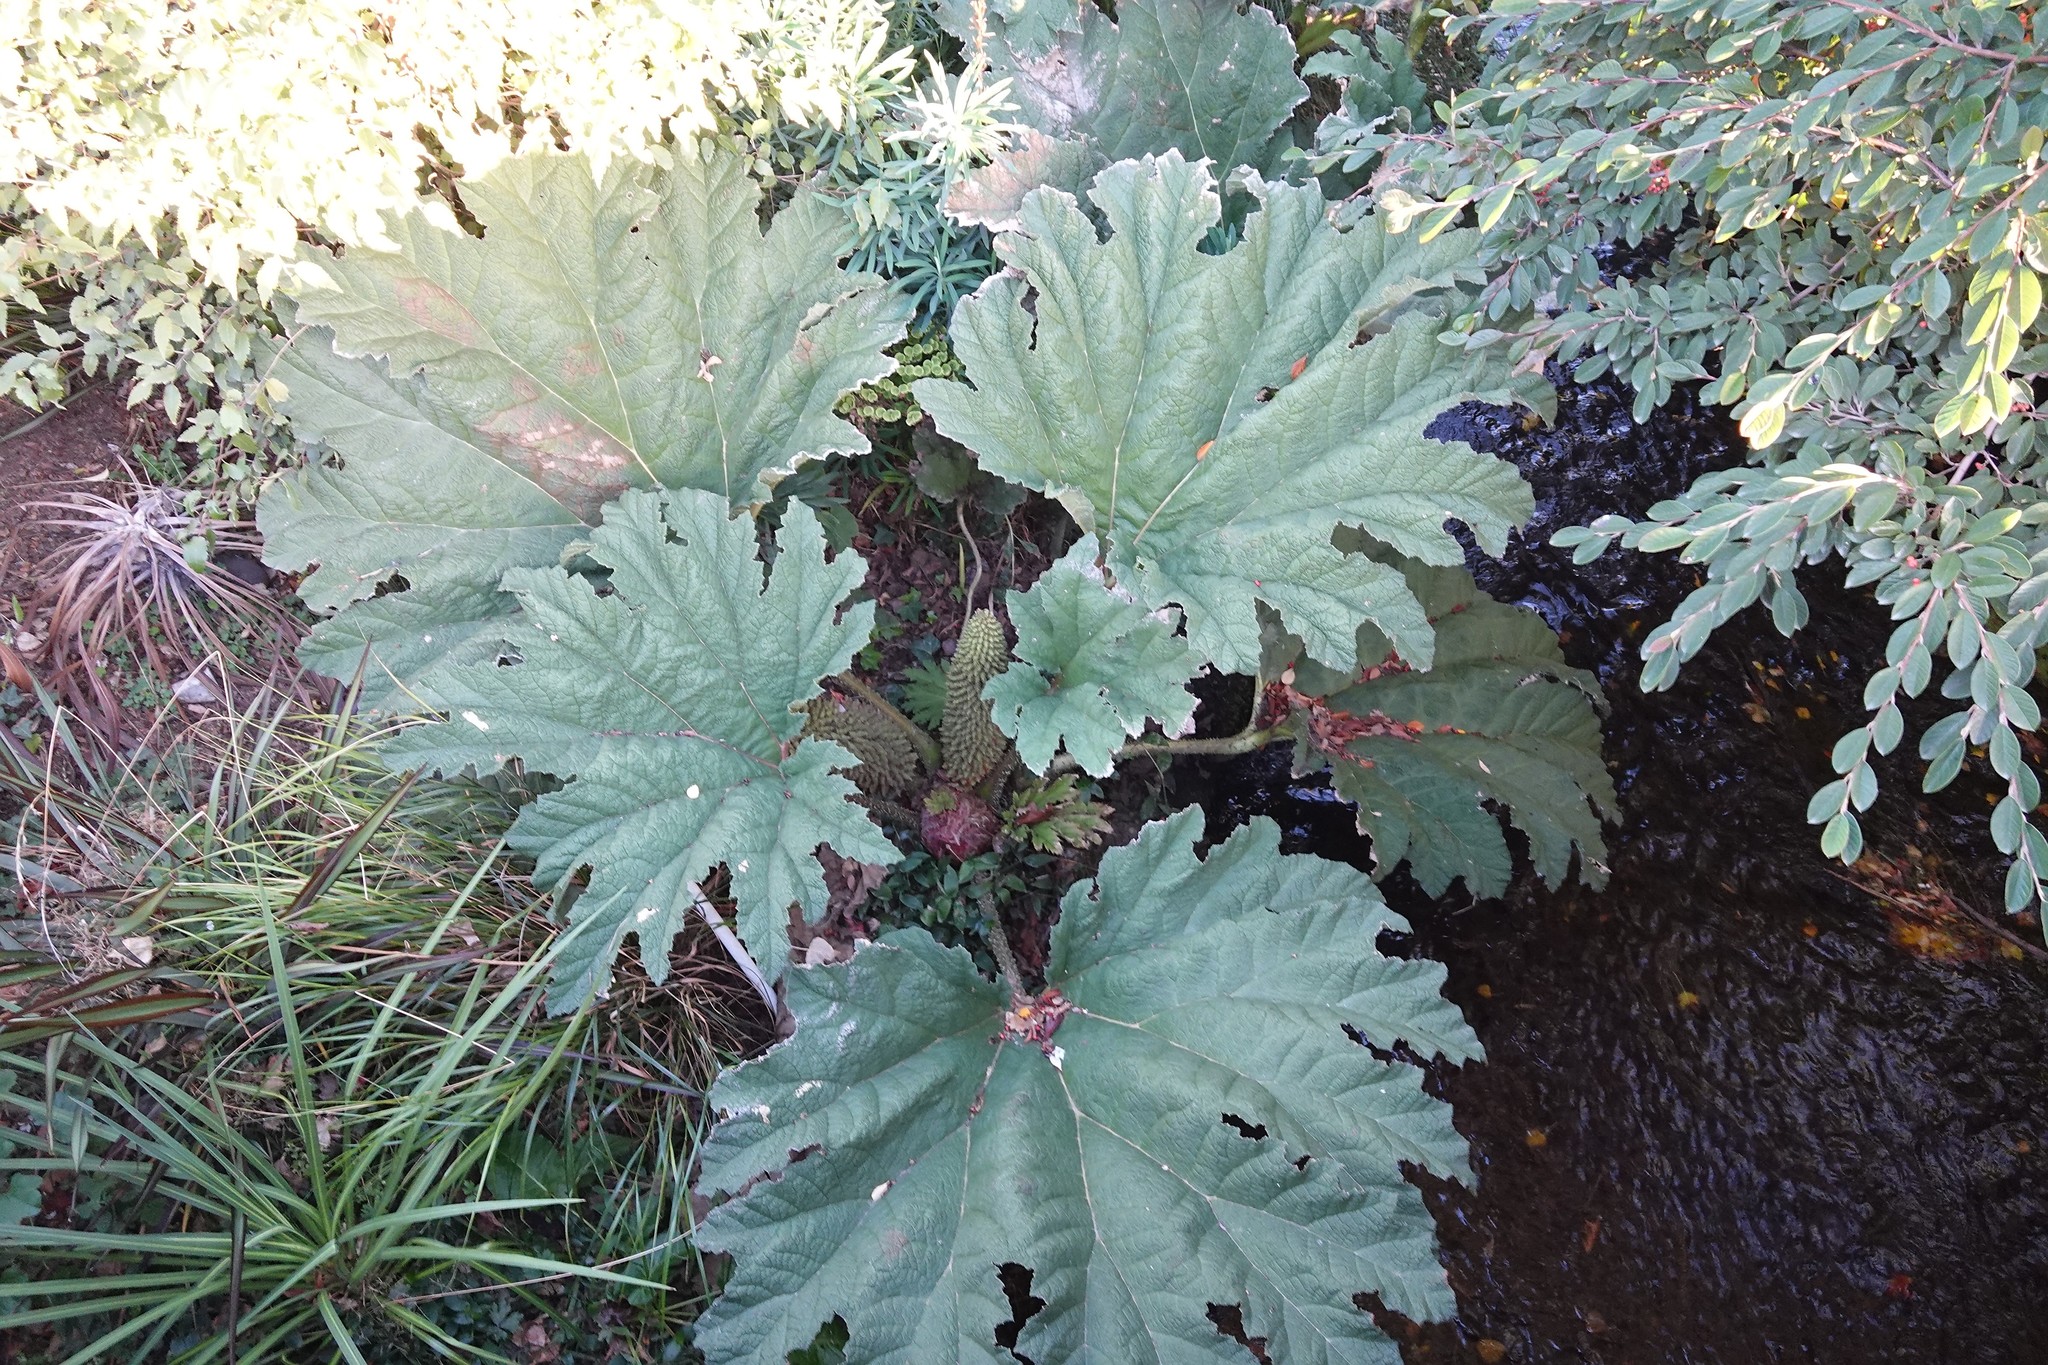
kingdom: Plantae
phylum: Tracheophyta
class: Magnoliopsida
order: Gunnerales
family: Gunneraceae
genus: Gunnera
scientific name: Gunnera tinctoria
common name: Giant-rhubarb
